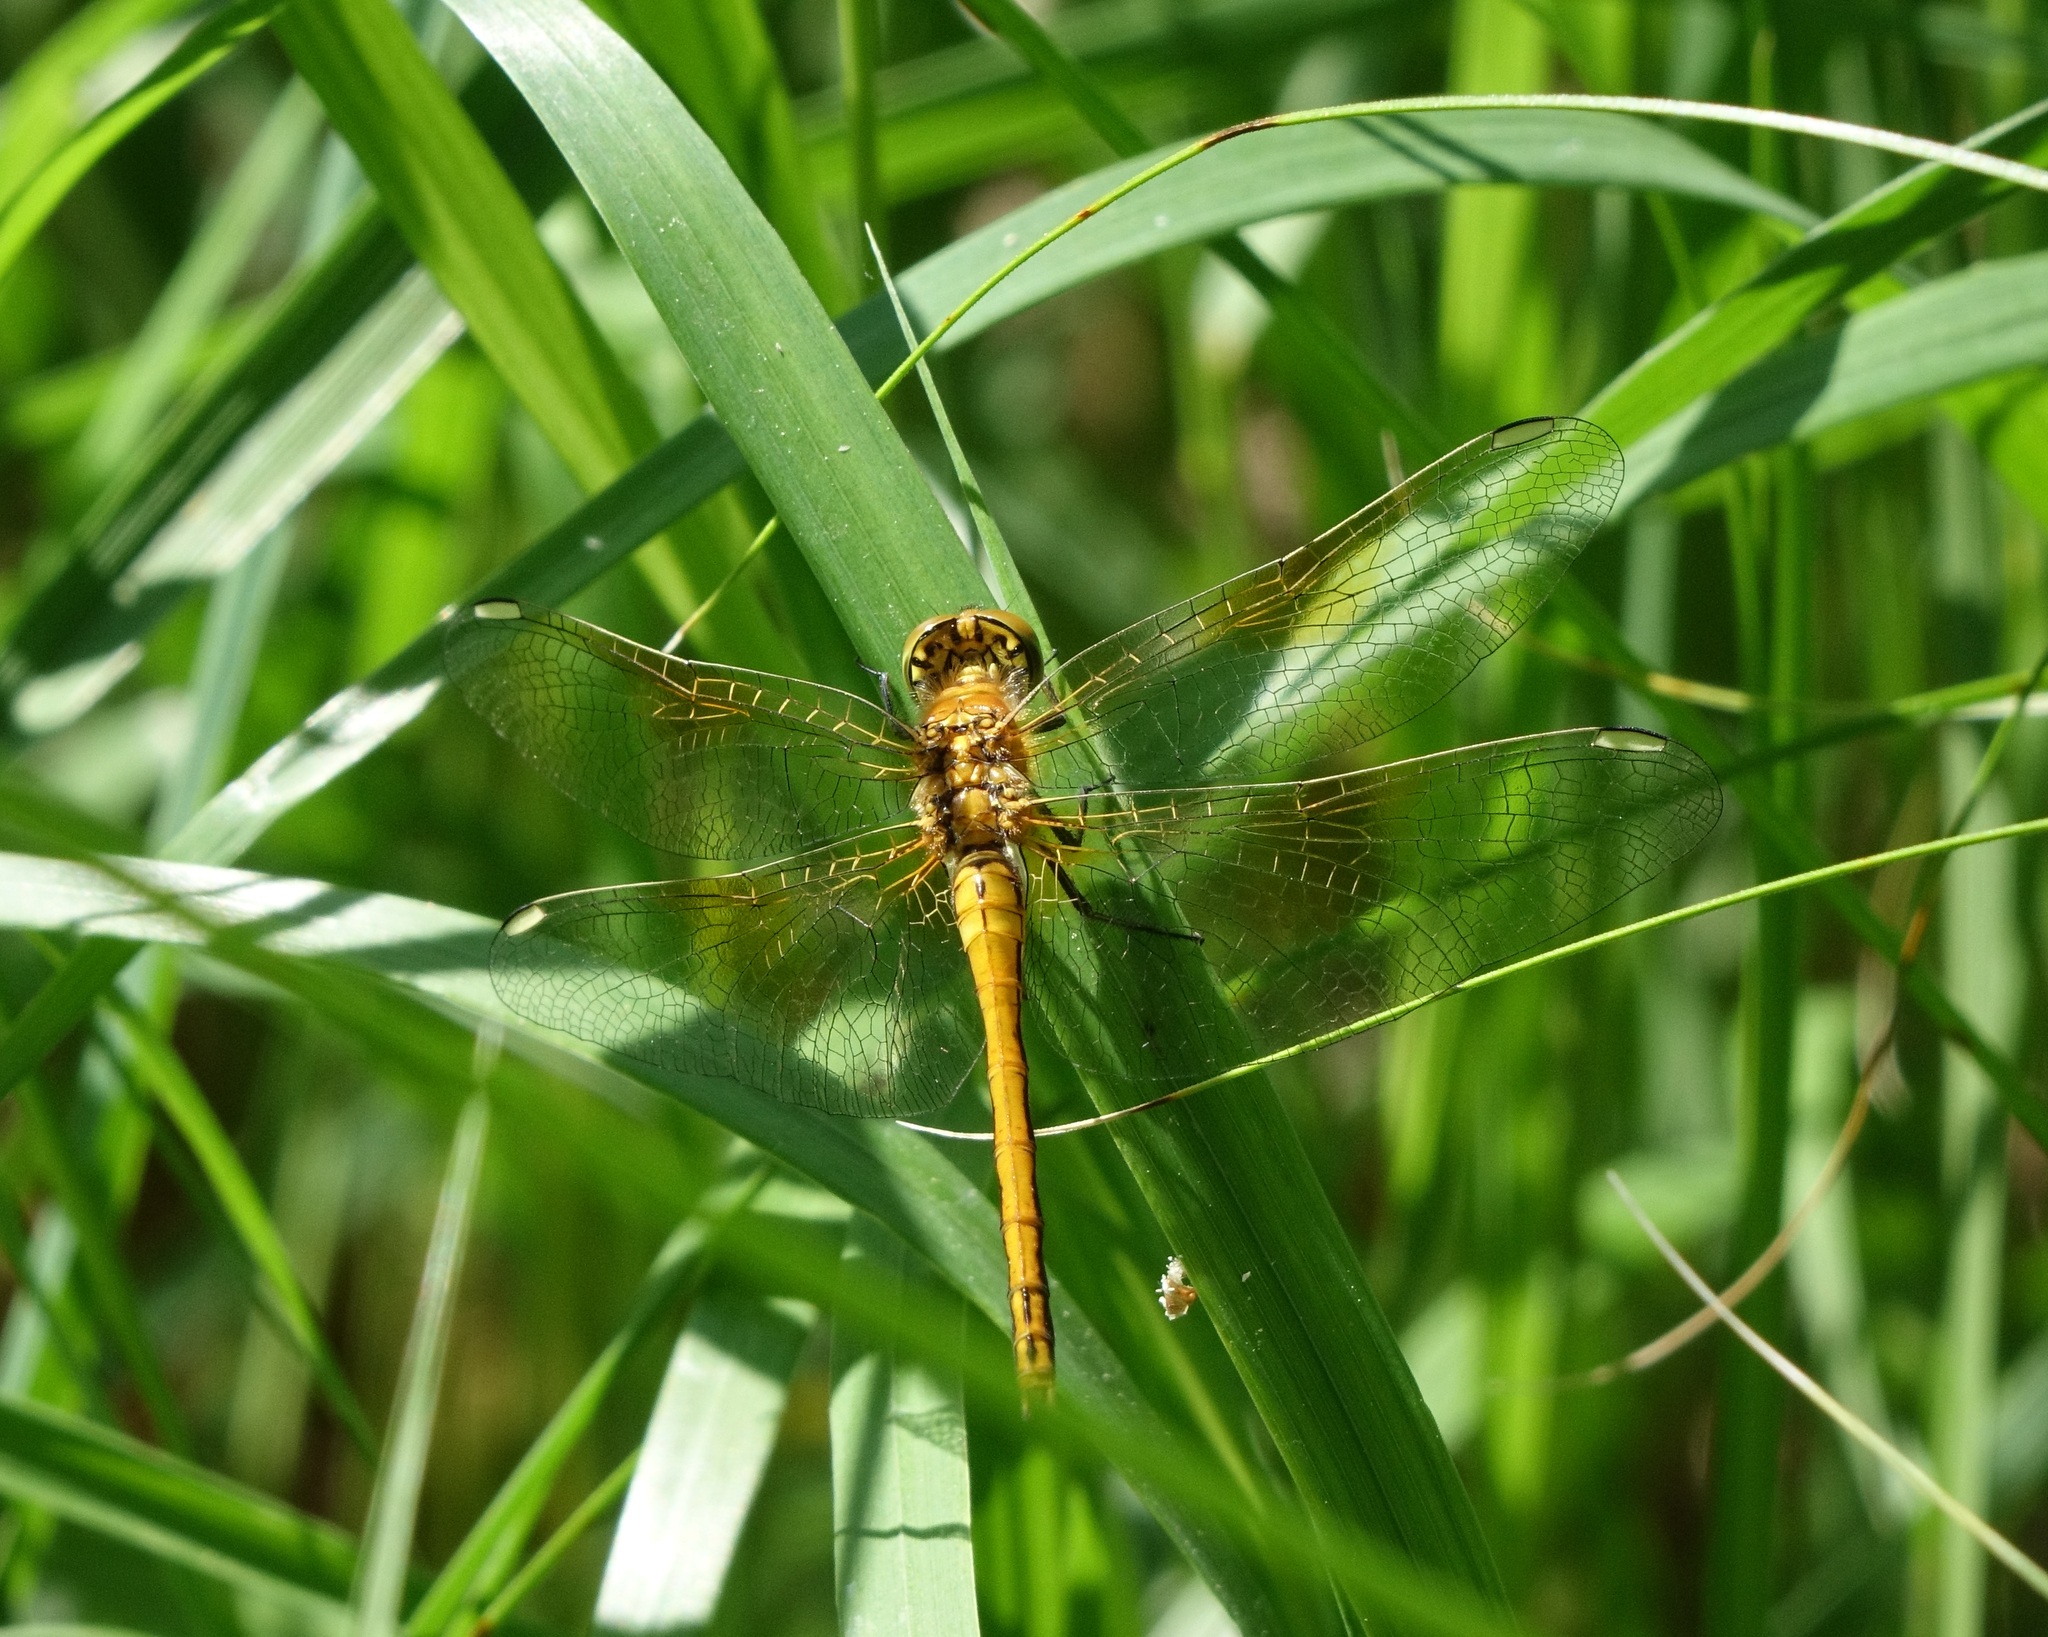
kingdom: Animalia
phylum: Arthropoda
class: Insecta
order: Odonata
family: Libellulidae
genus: Sympetrum
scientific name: Sympetrum flaveolum
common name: Yellow-winged darter
